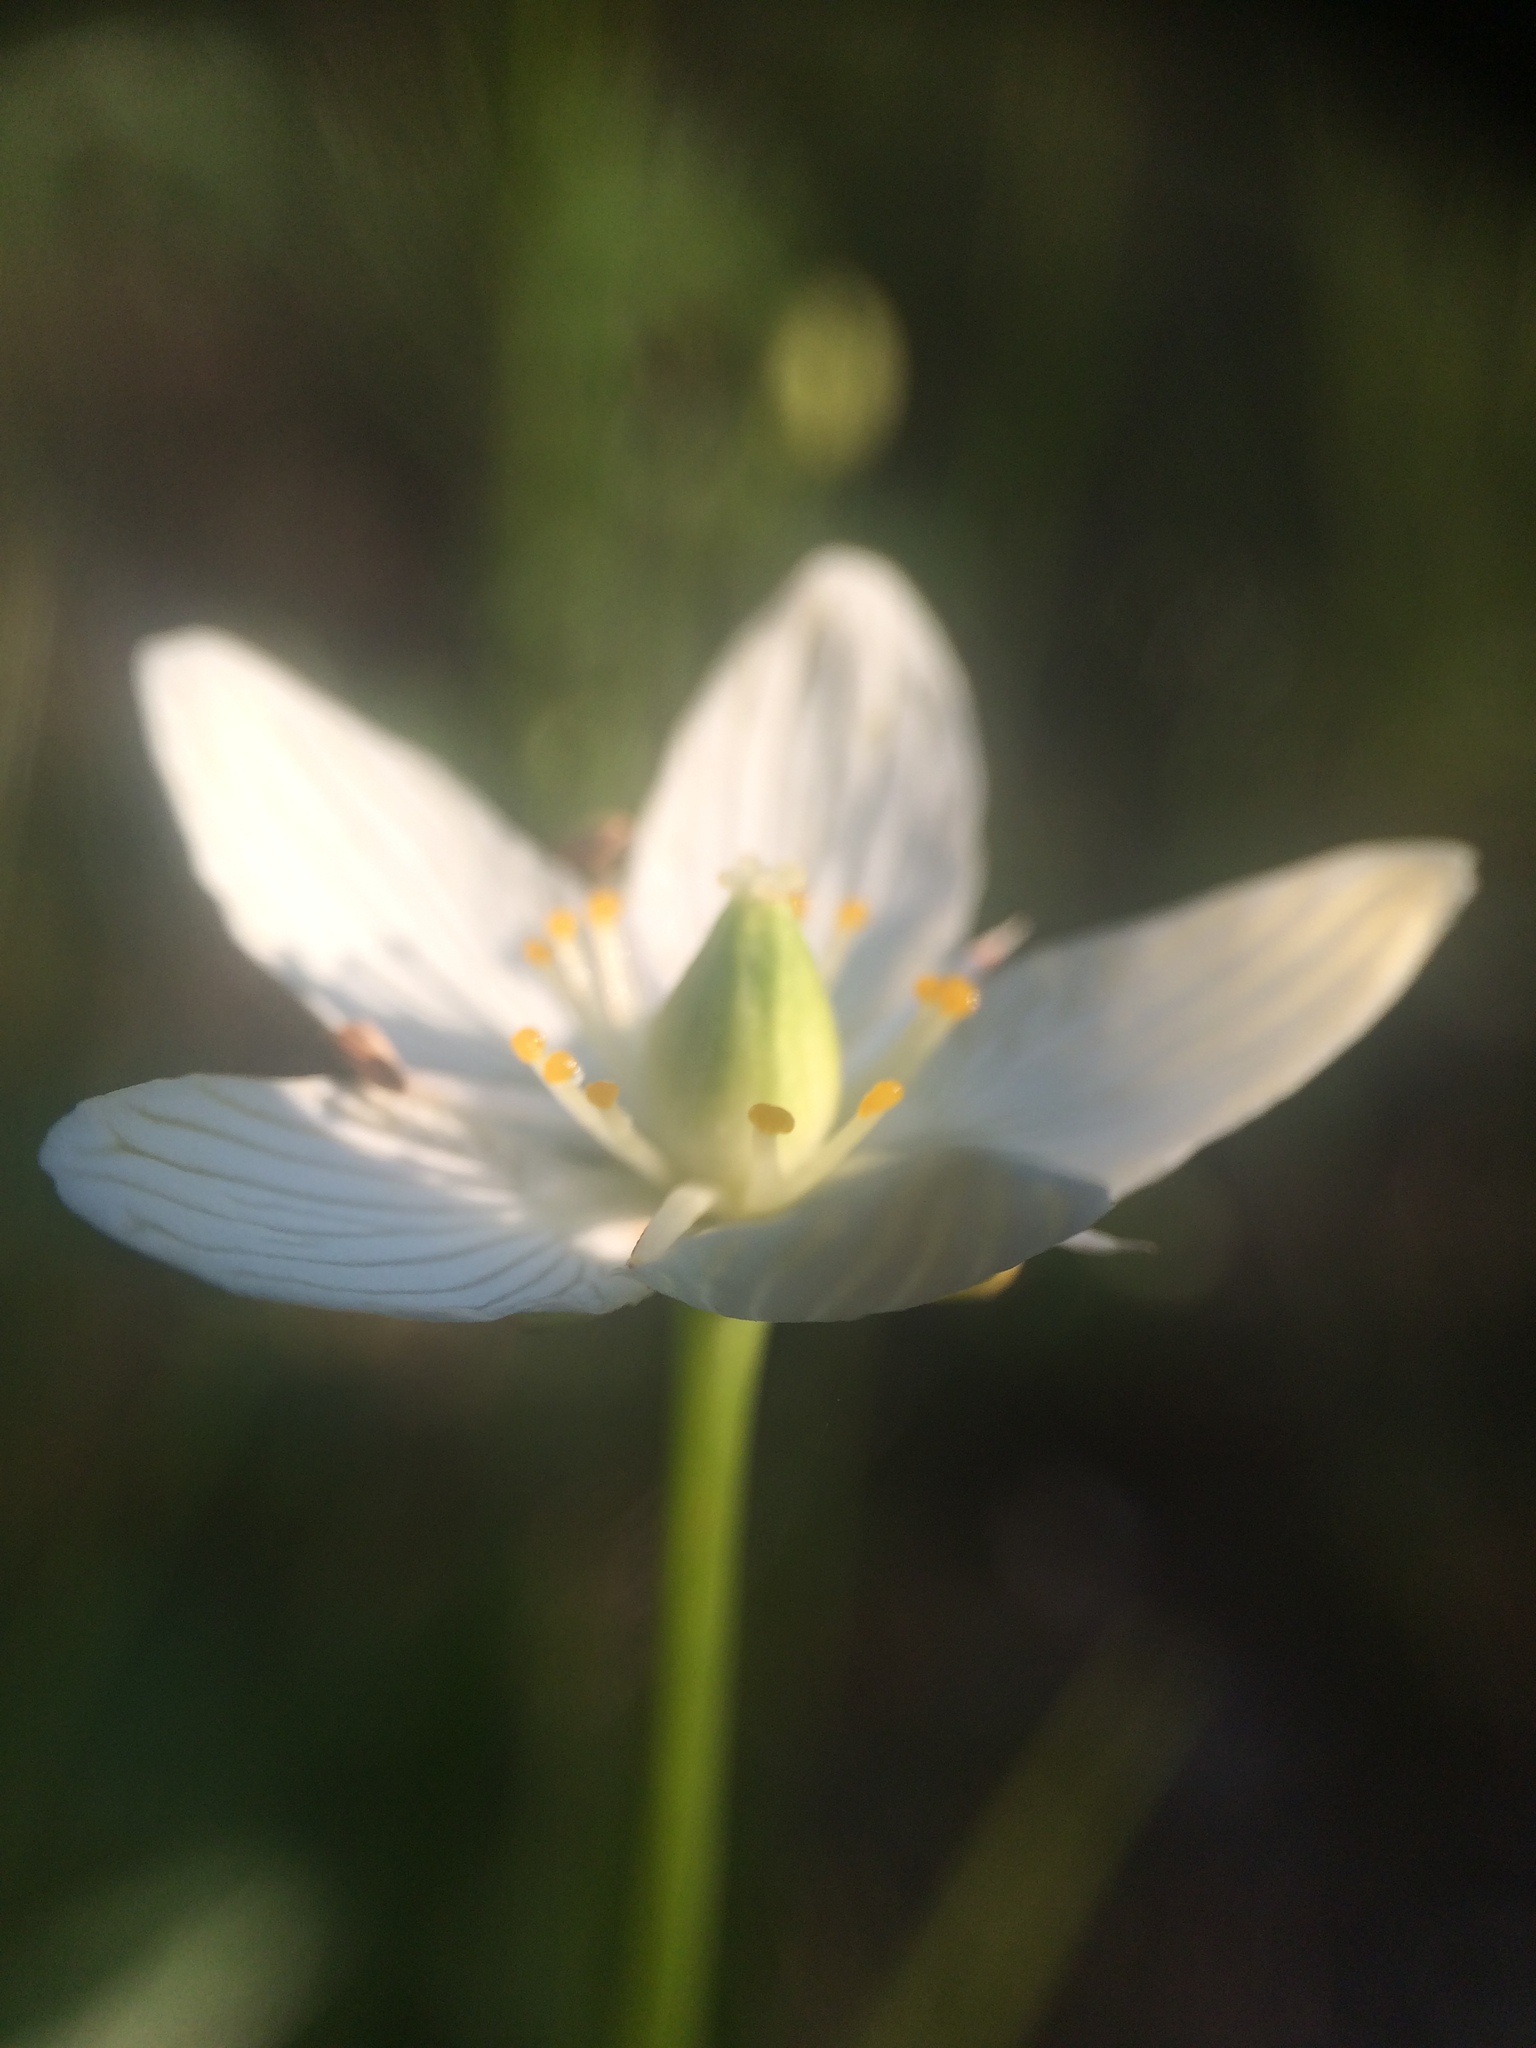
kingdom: Plantae
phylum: Tracheophyta
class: Magnoliopsida
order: Celastrales
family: Parnassiaceae
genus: Parnassia
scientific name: Parnassia glauca
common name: American grass-of-parnassus
